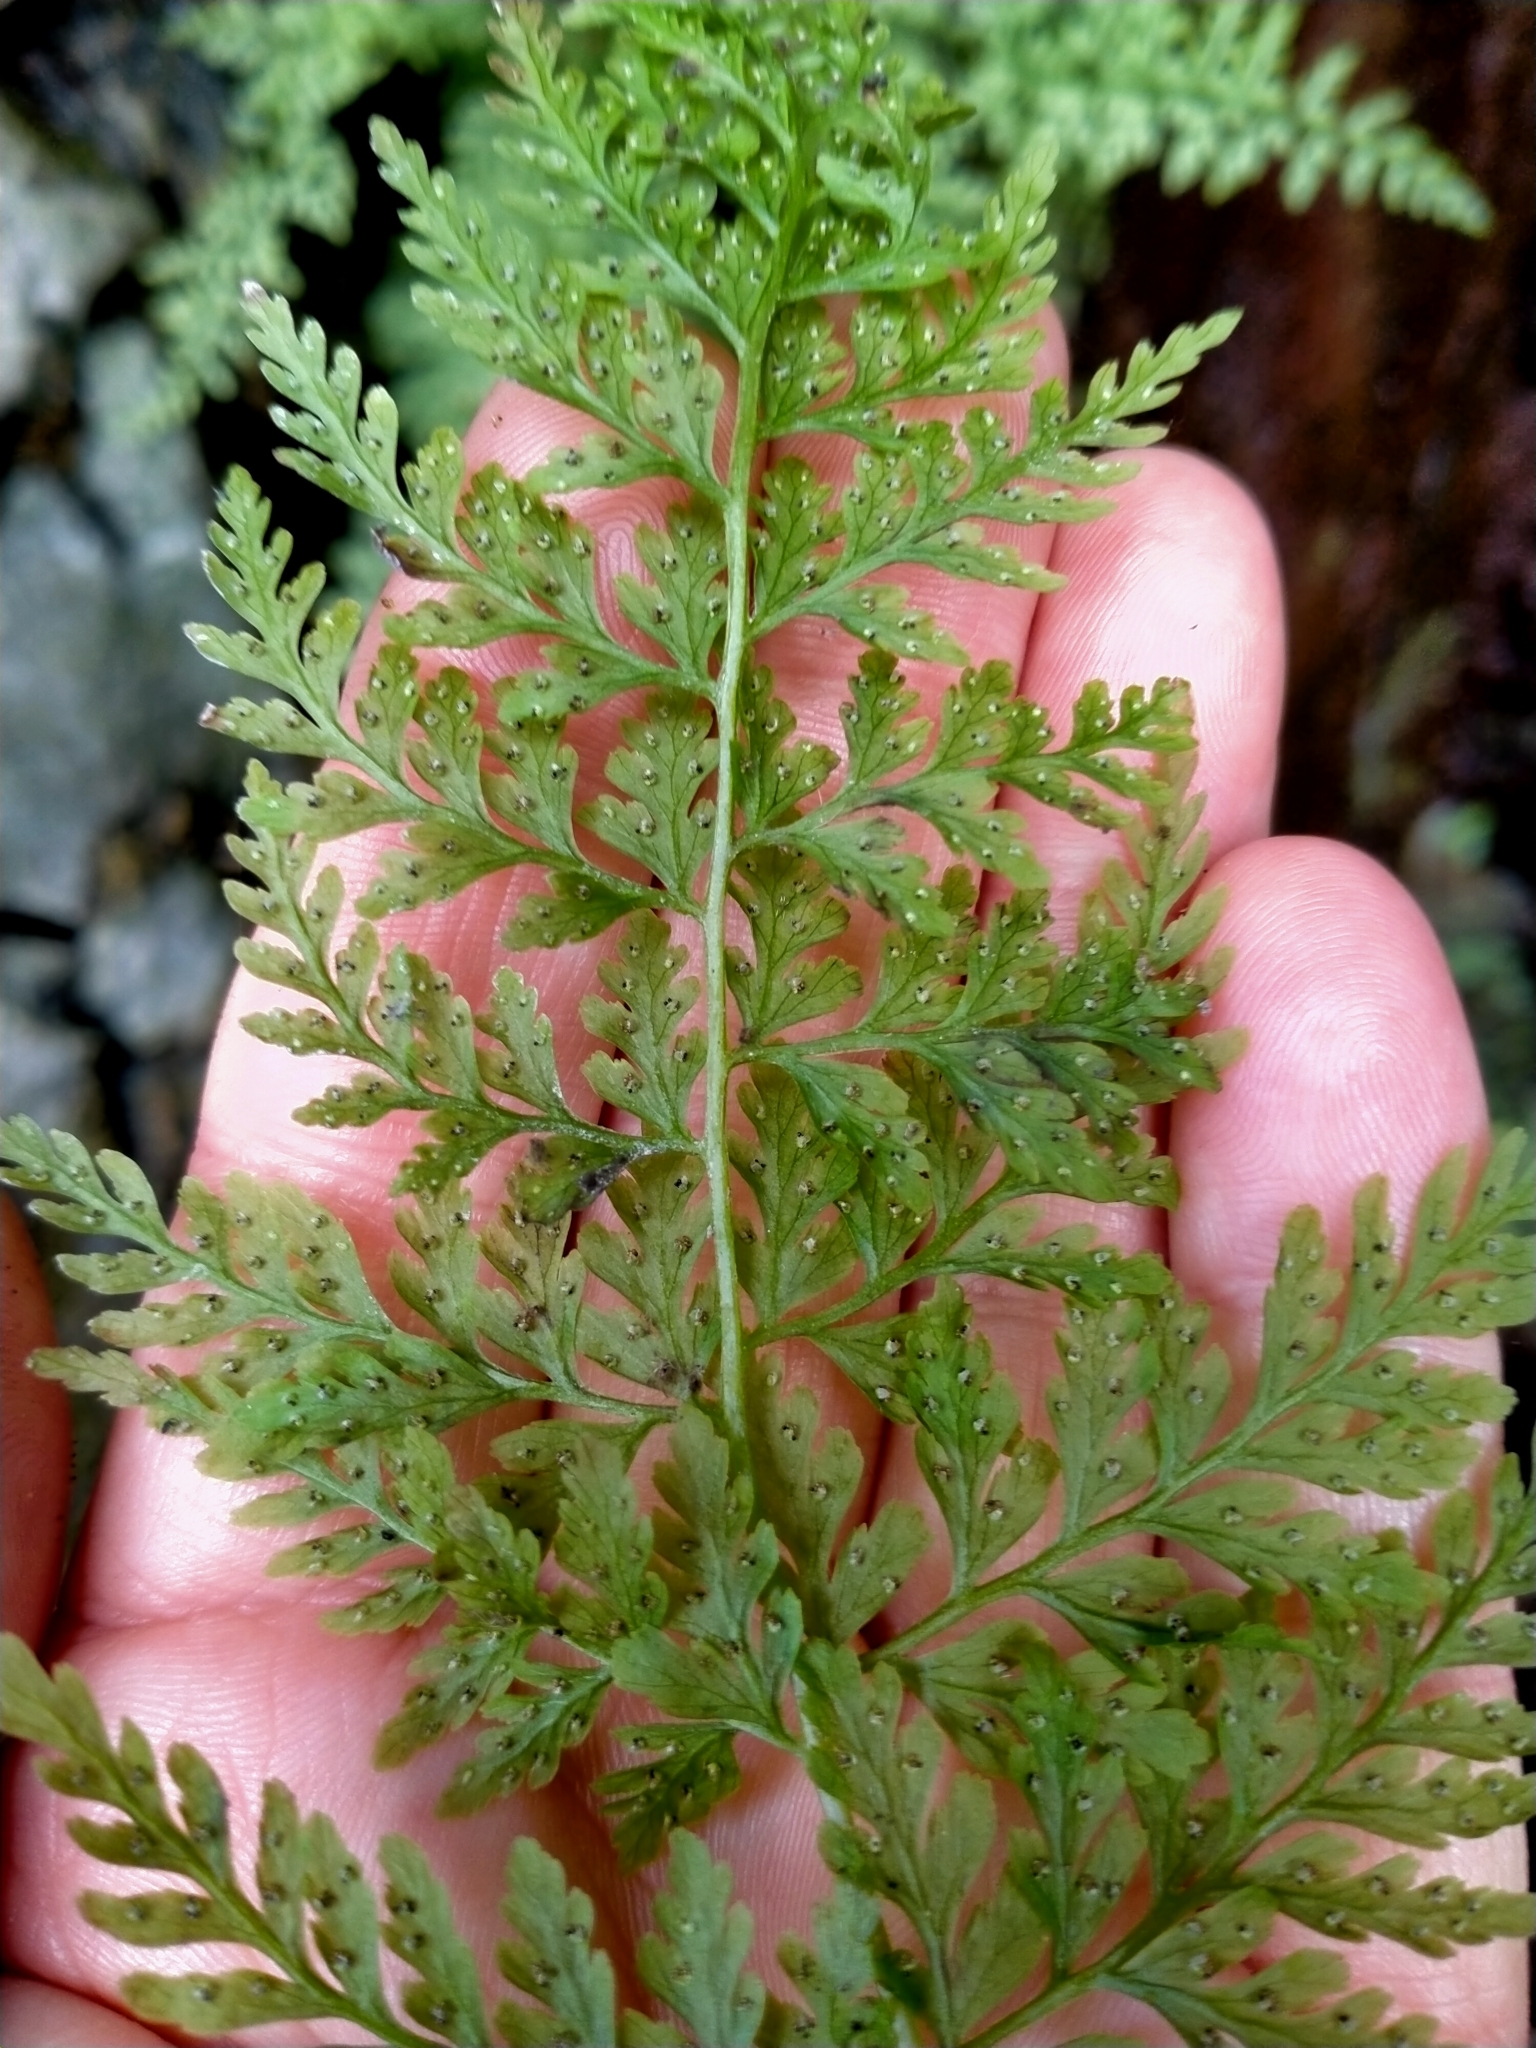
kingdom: Plantae
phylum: Tracheophyta
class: Polypodiopsida
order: Polypodiales
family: Cystopteridaceae
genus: Cystopteris
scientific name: Cystopteris fragilis
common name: Brittle bladder fern
